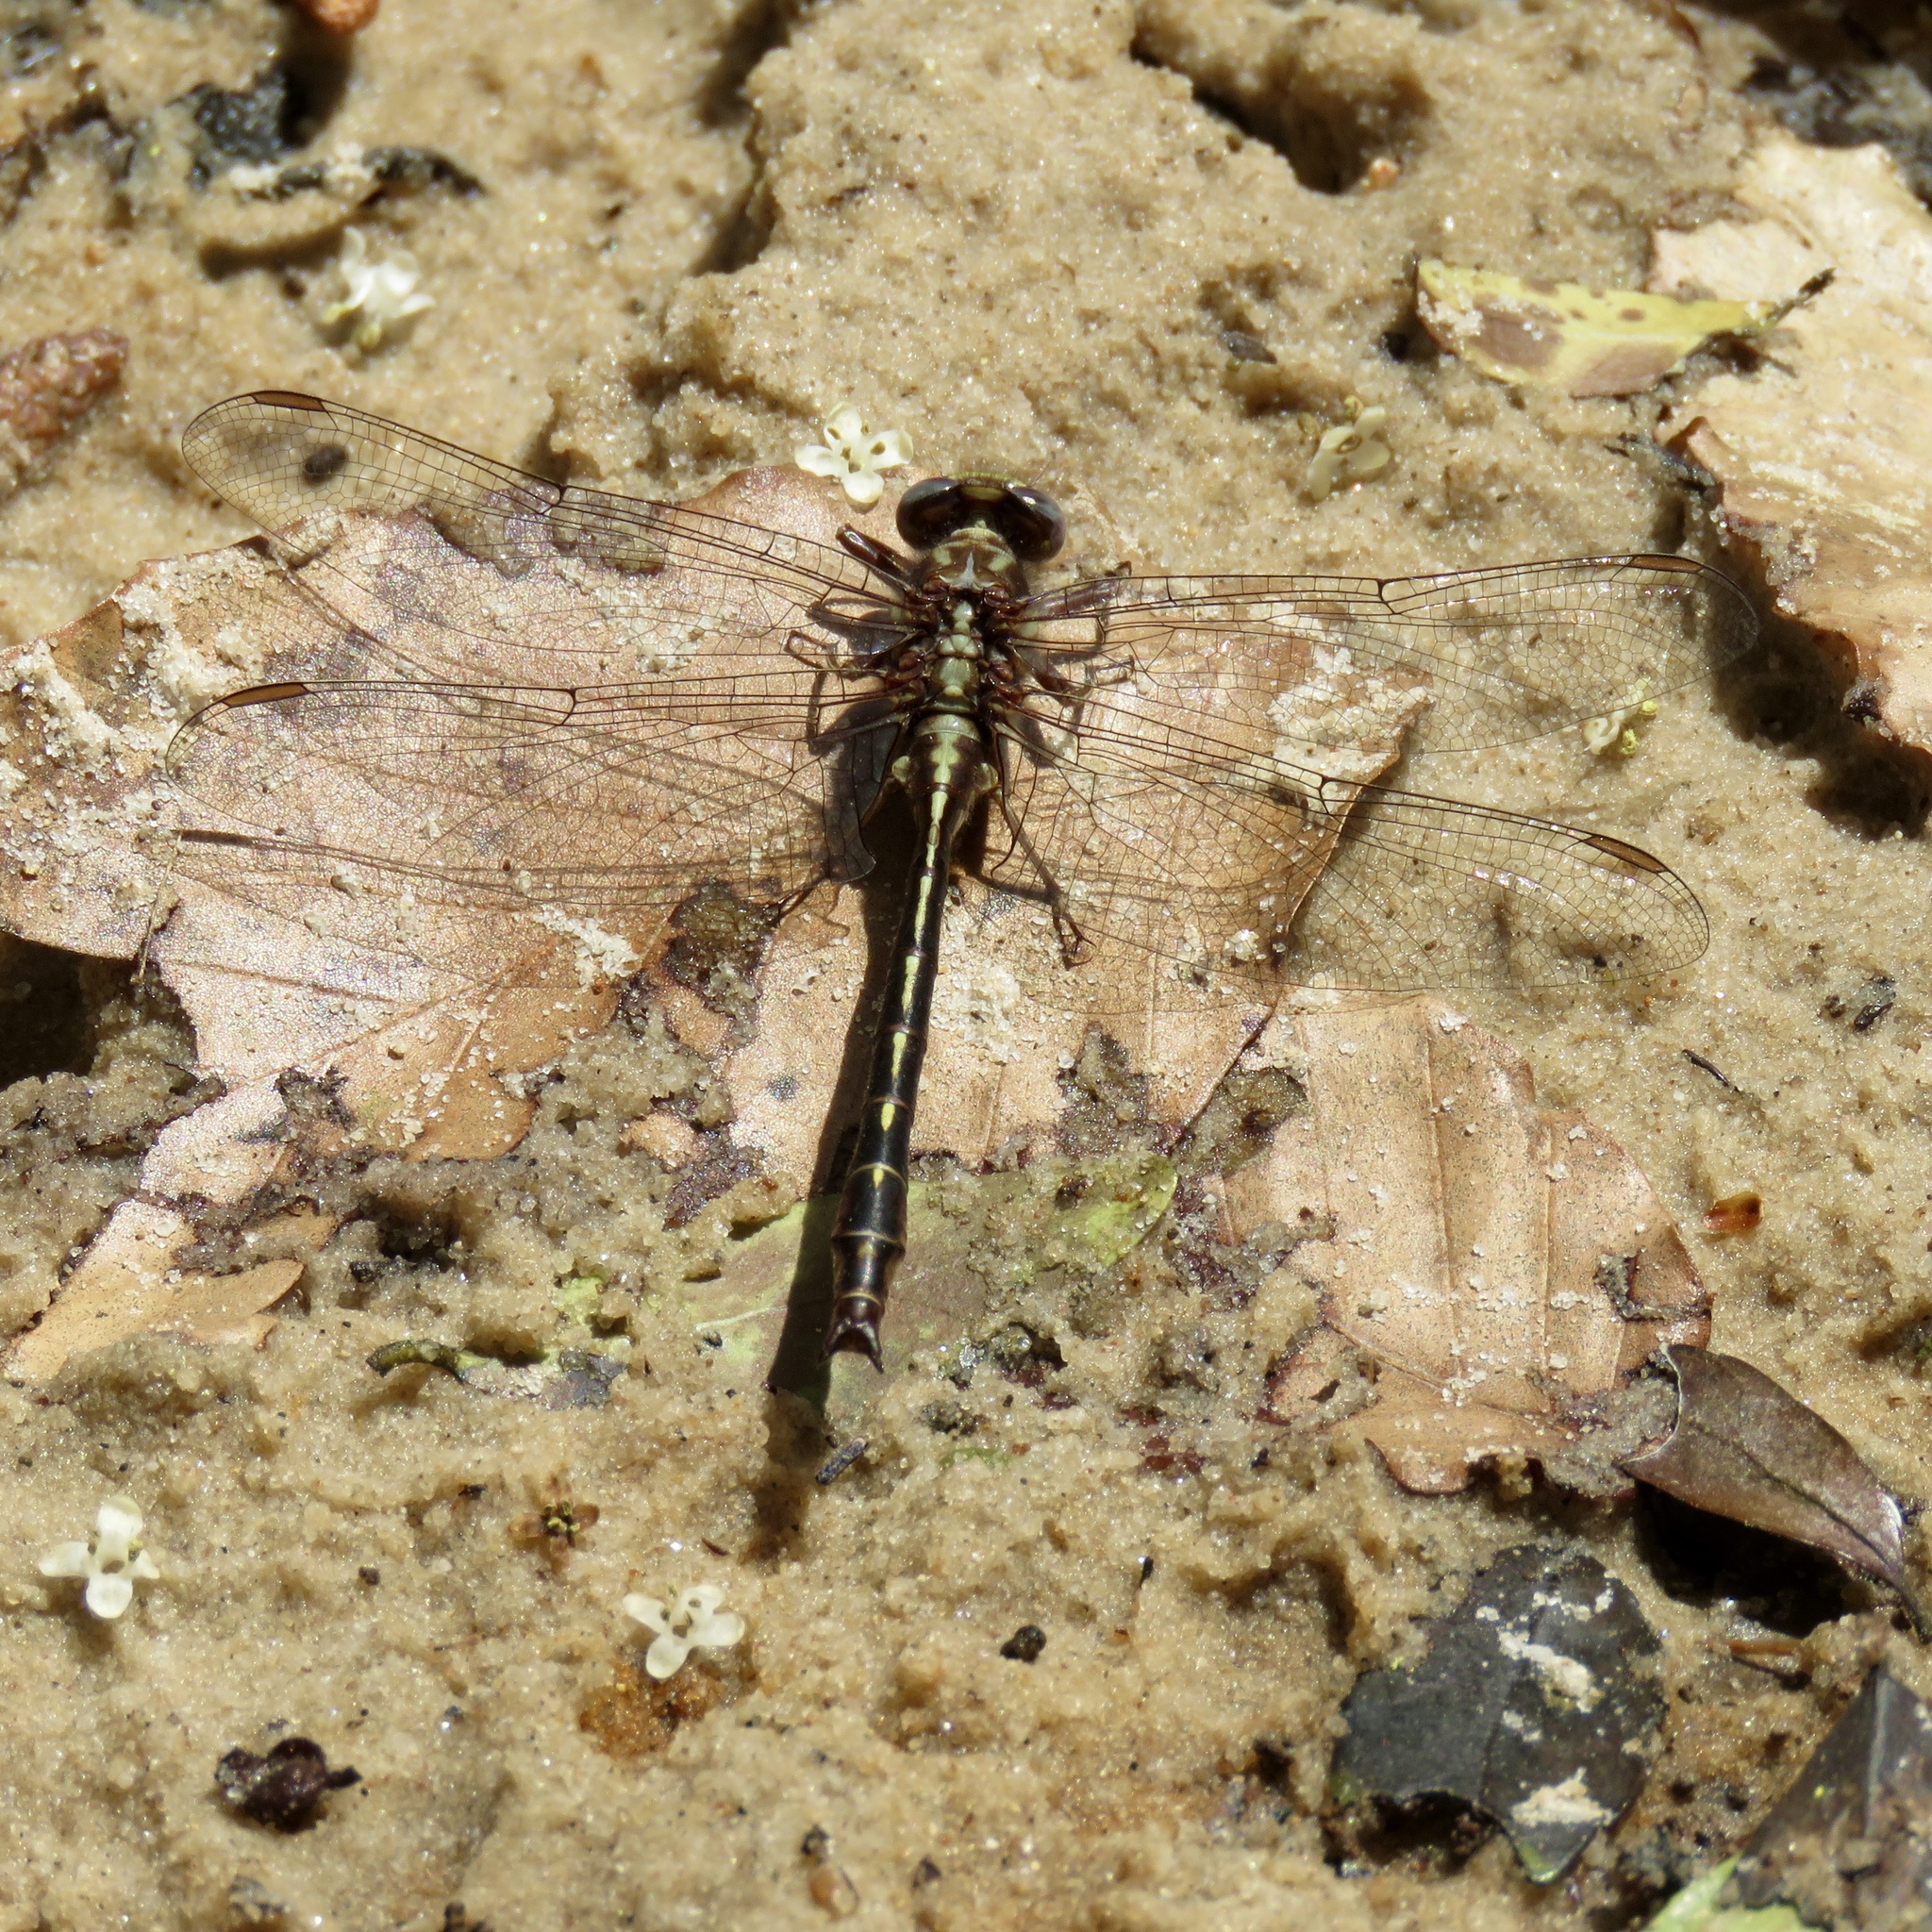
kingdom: Animalia
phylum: Arthropoda
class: Insecta
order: Odonata
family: Gomphidae
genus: Phanogomphus
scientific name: Phanogomphus lividus
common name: Ashy clubtail
